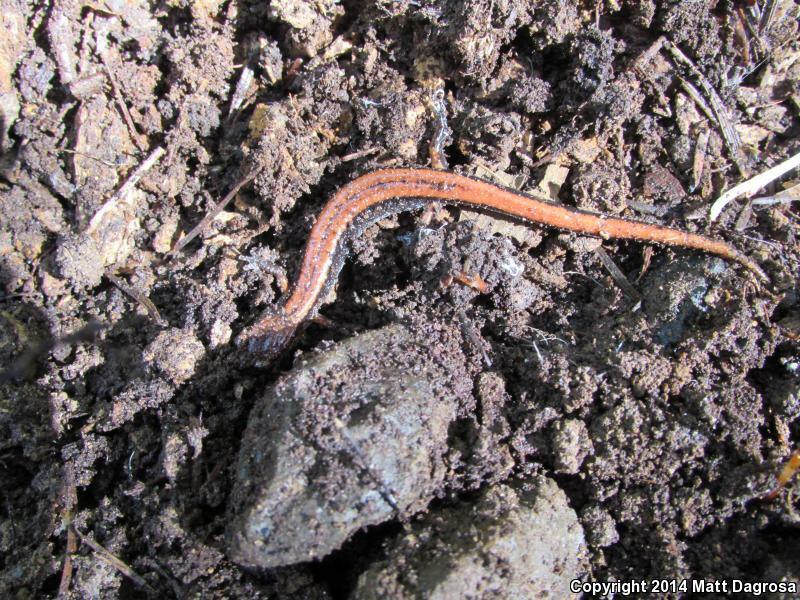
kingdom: Animalia
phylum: Chordata
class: Amphibia
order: Caudata
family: Plethodontidae
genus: Plethodon
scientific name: Plethodon vehiculum
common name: Western red-backed salamander
